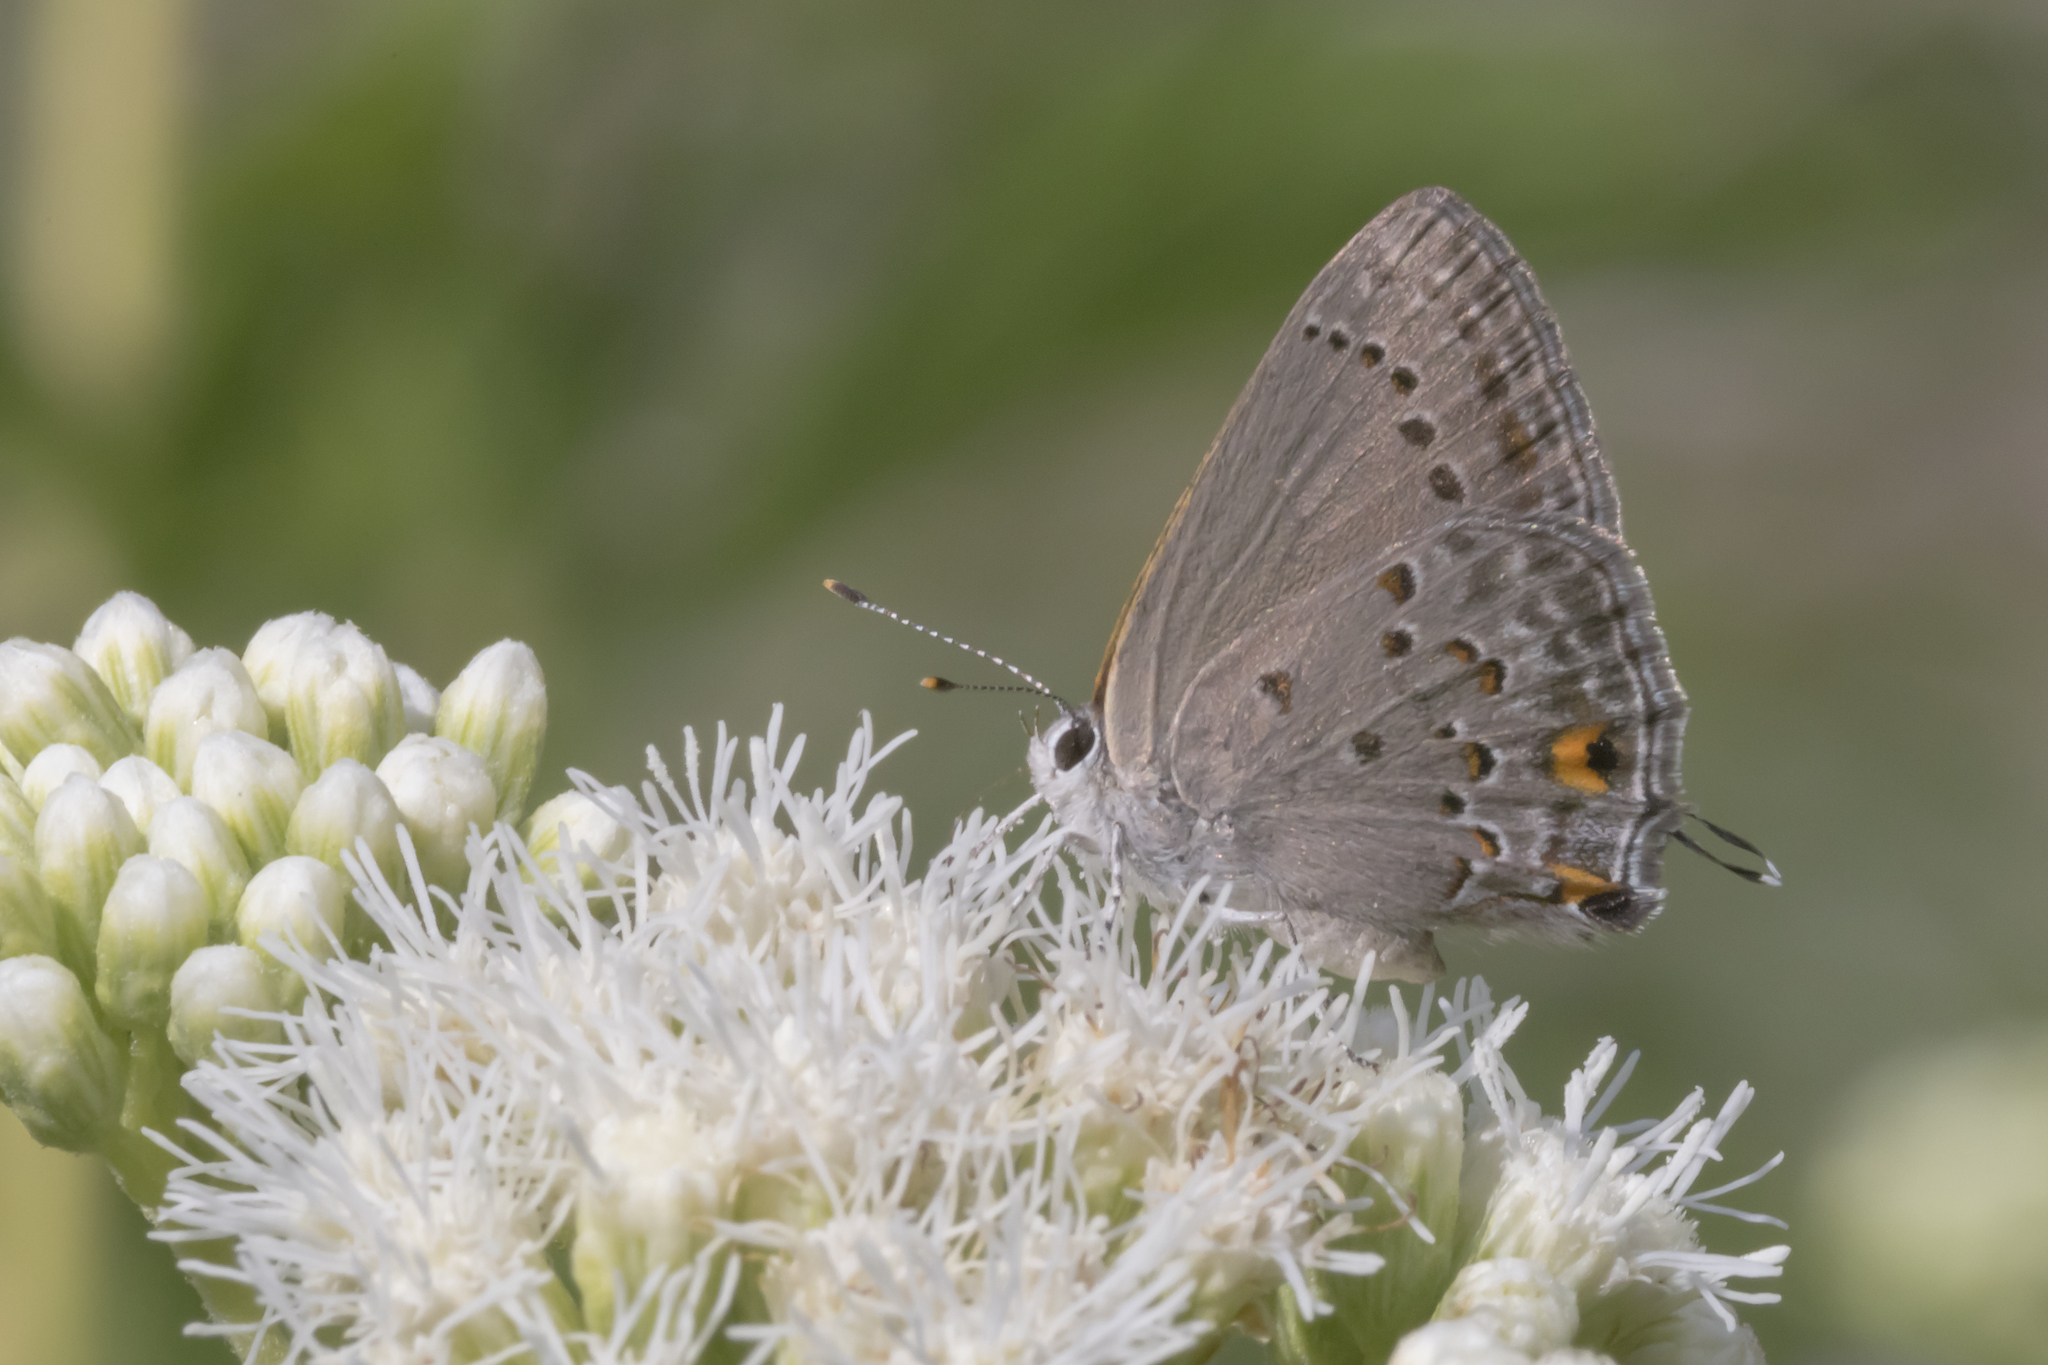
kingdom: Animalia
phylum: Arthropoda
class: Insecta
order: Lepidoptera
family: Lycaenidae
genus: Strymon
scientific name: Strymon eurytulus
